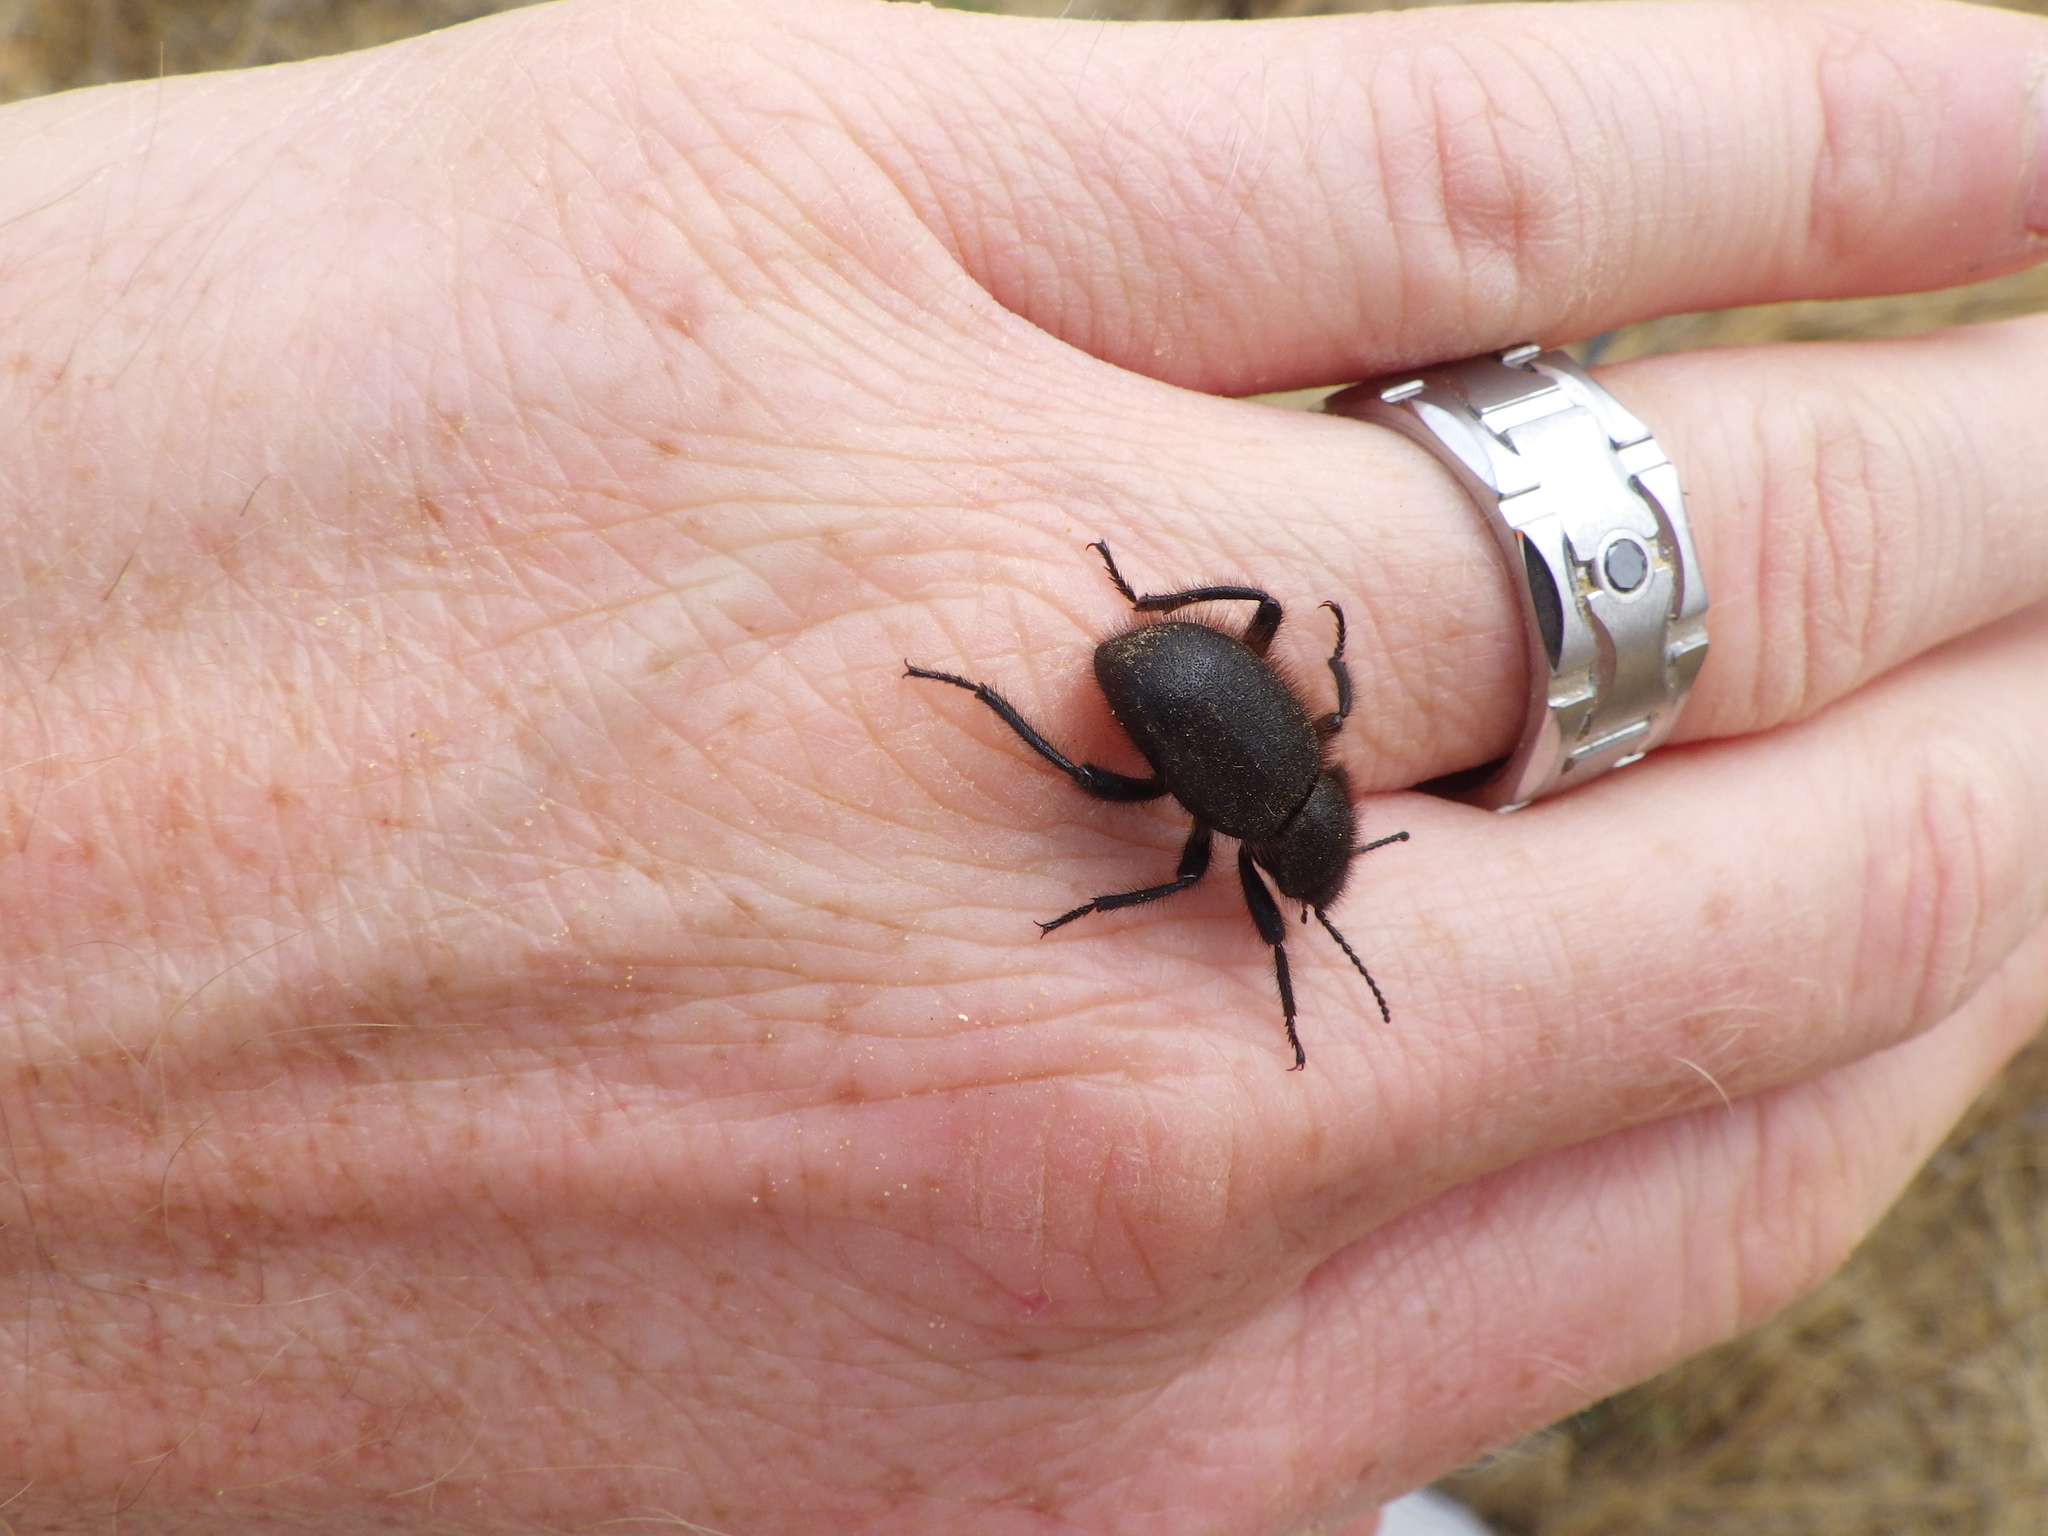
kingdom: Animalia
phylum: Arthropoda
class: Insecta
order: Coleoptera
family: Tenebrionidae
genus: Eleodes
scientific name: Eleodes osculans
